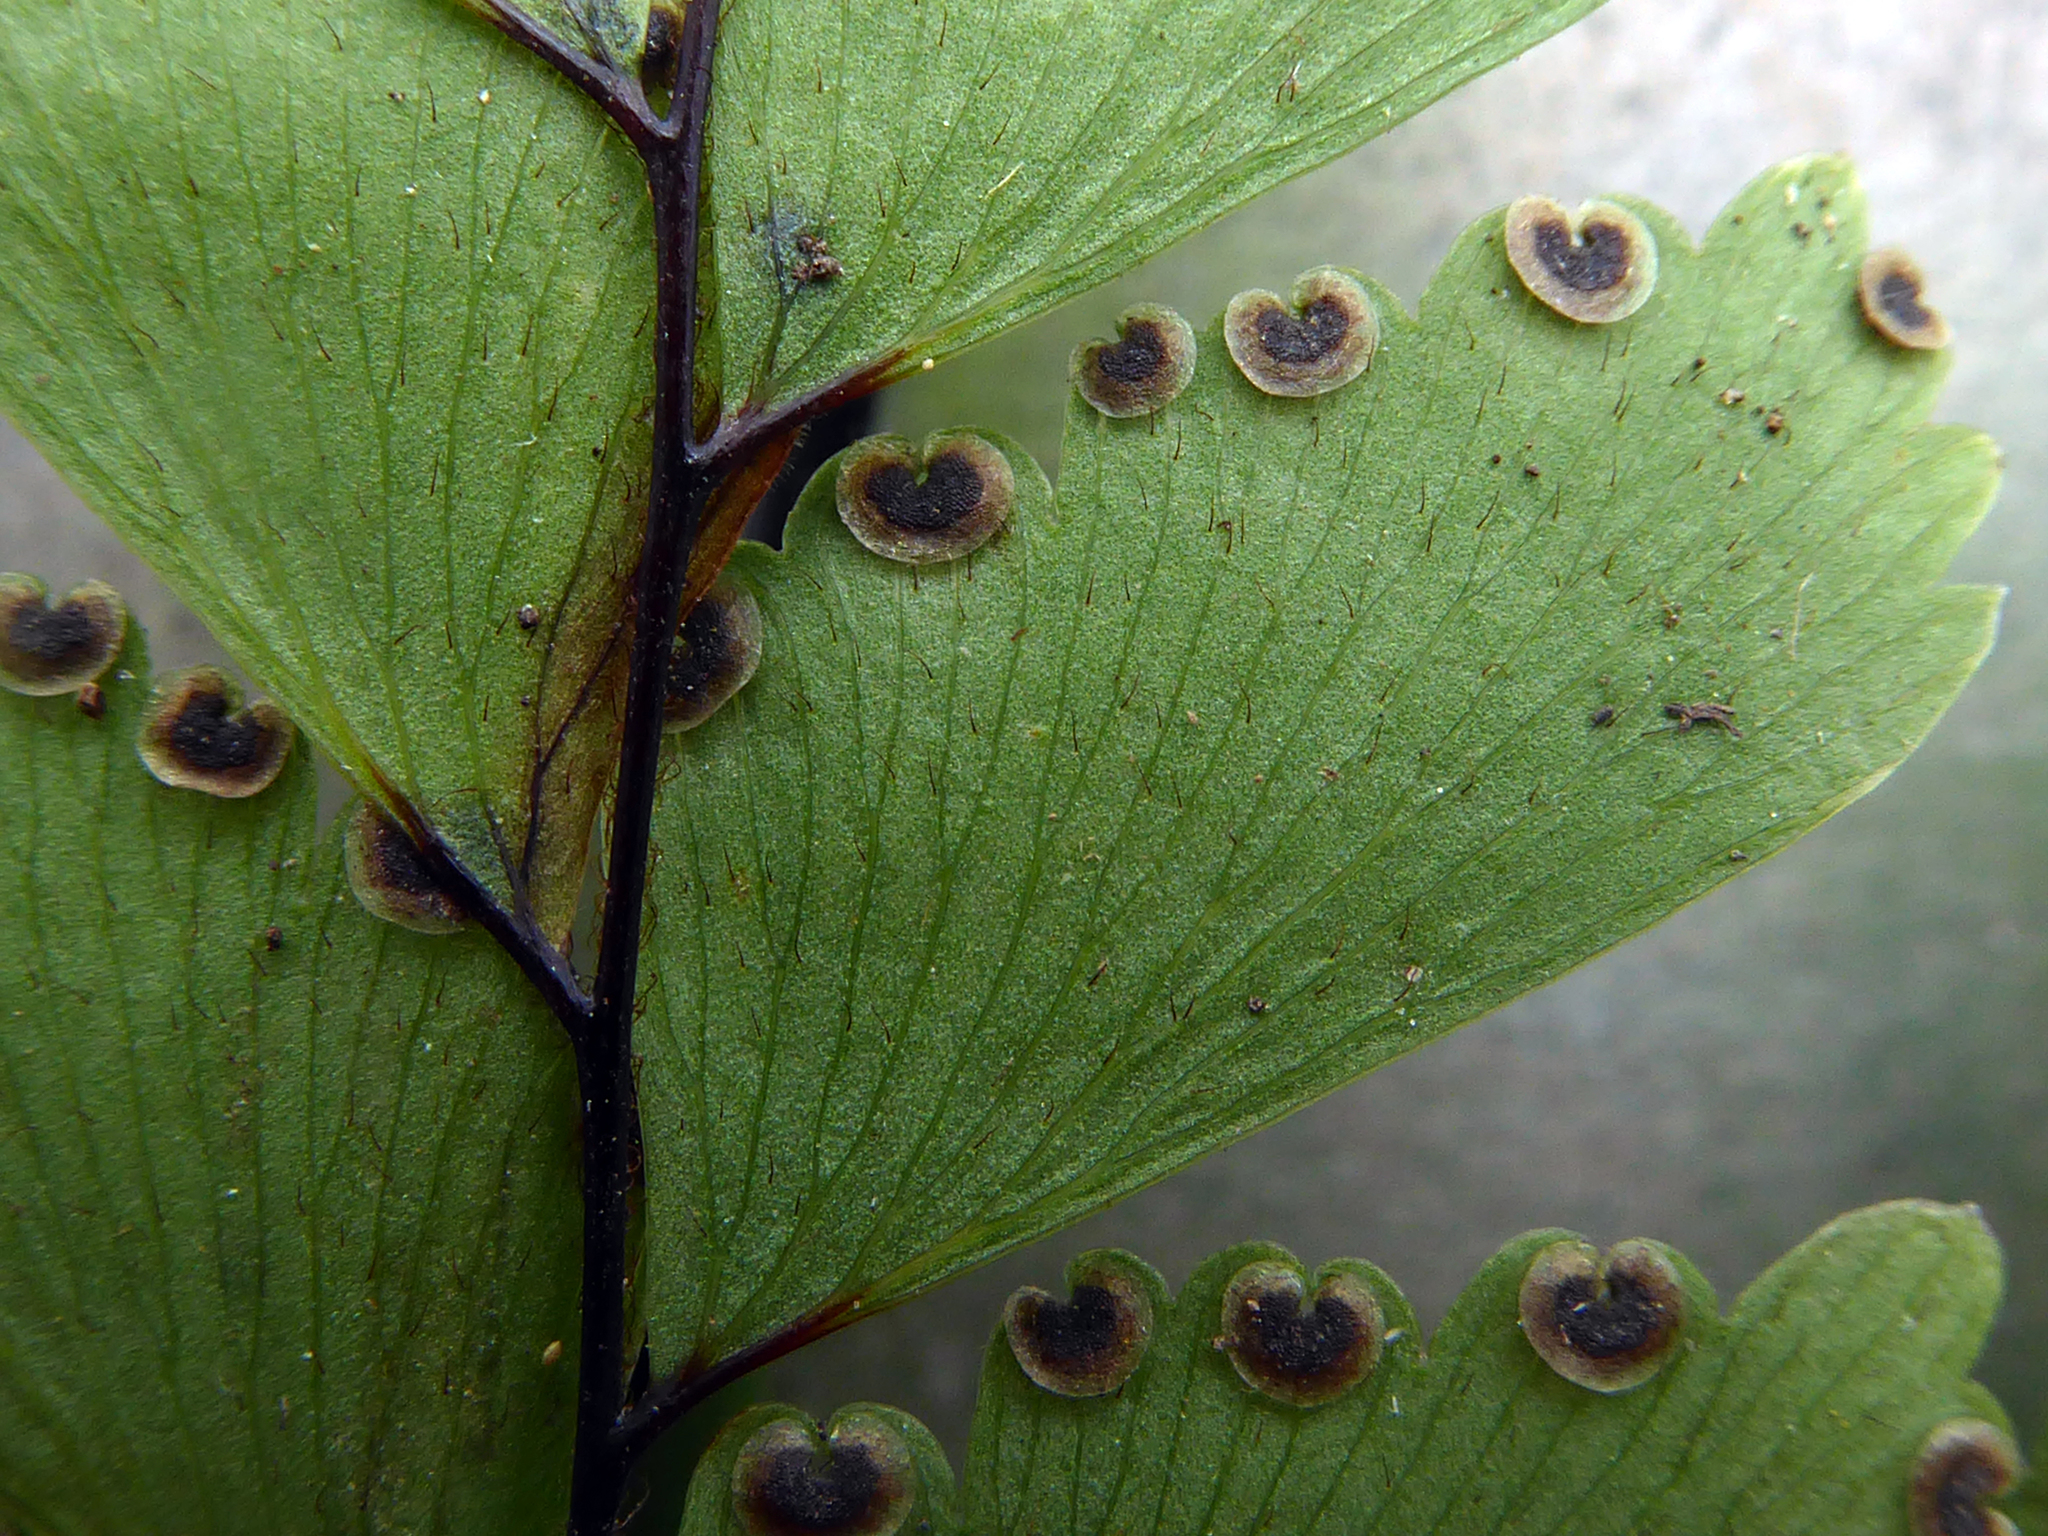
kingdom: Plantae
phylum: Tracheophyta
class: Polypodiopsida
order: Polypodiales
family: Pteridaceae
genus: Adiantum
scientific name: Adiantum fulvum
